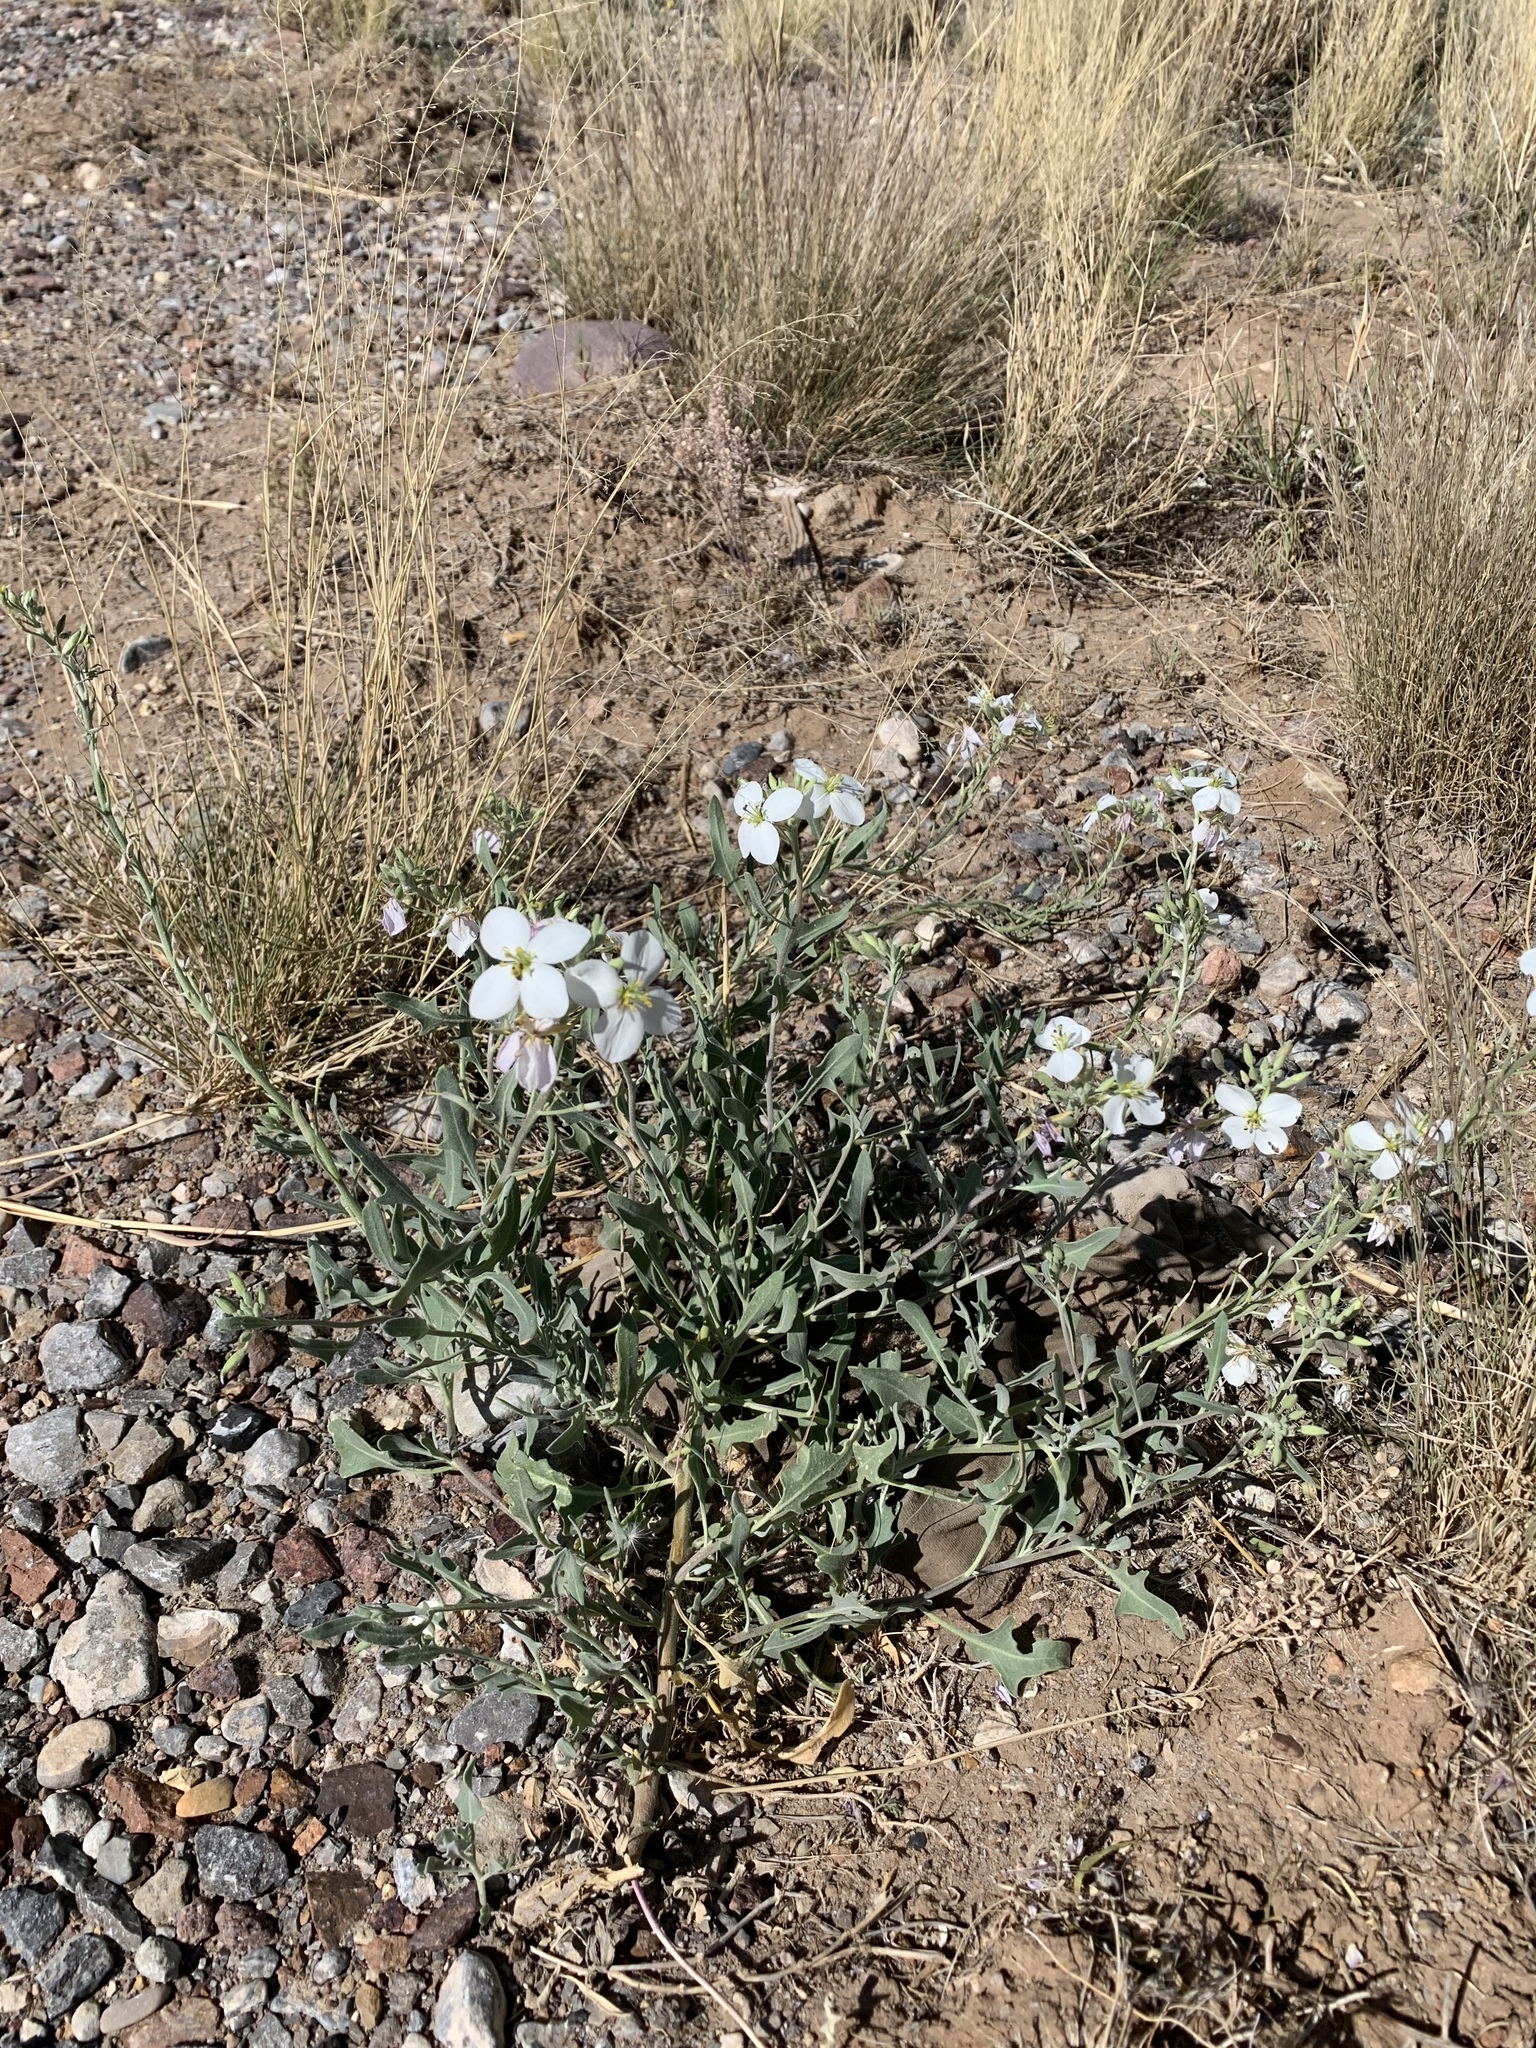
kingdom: Plantae
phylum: Tracheophyta
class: Magnoliopsida
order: Brassicales
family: Brassicaceae
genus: Nerisyrenia
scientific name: Nerisyrenia camporum
